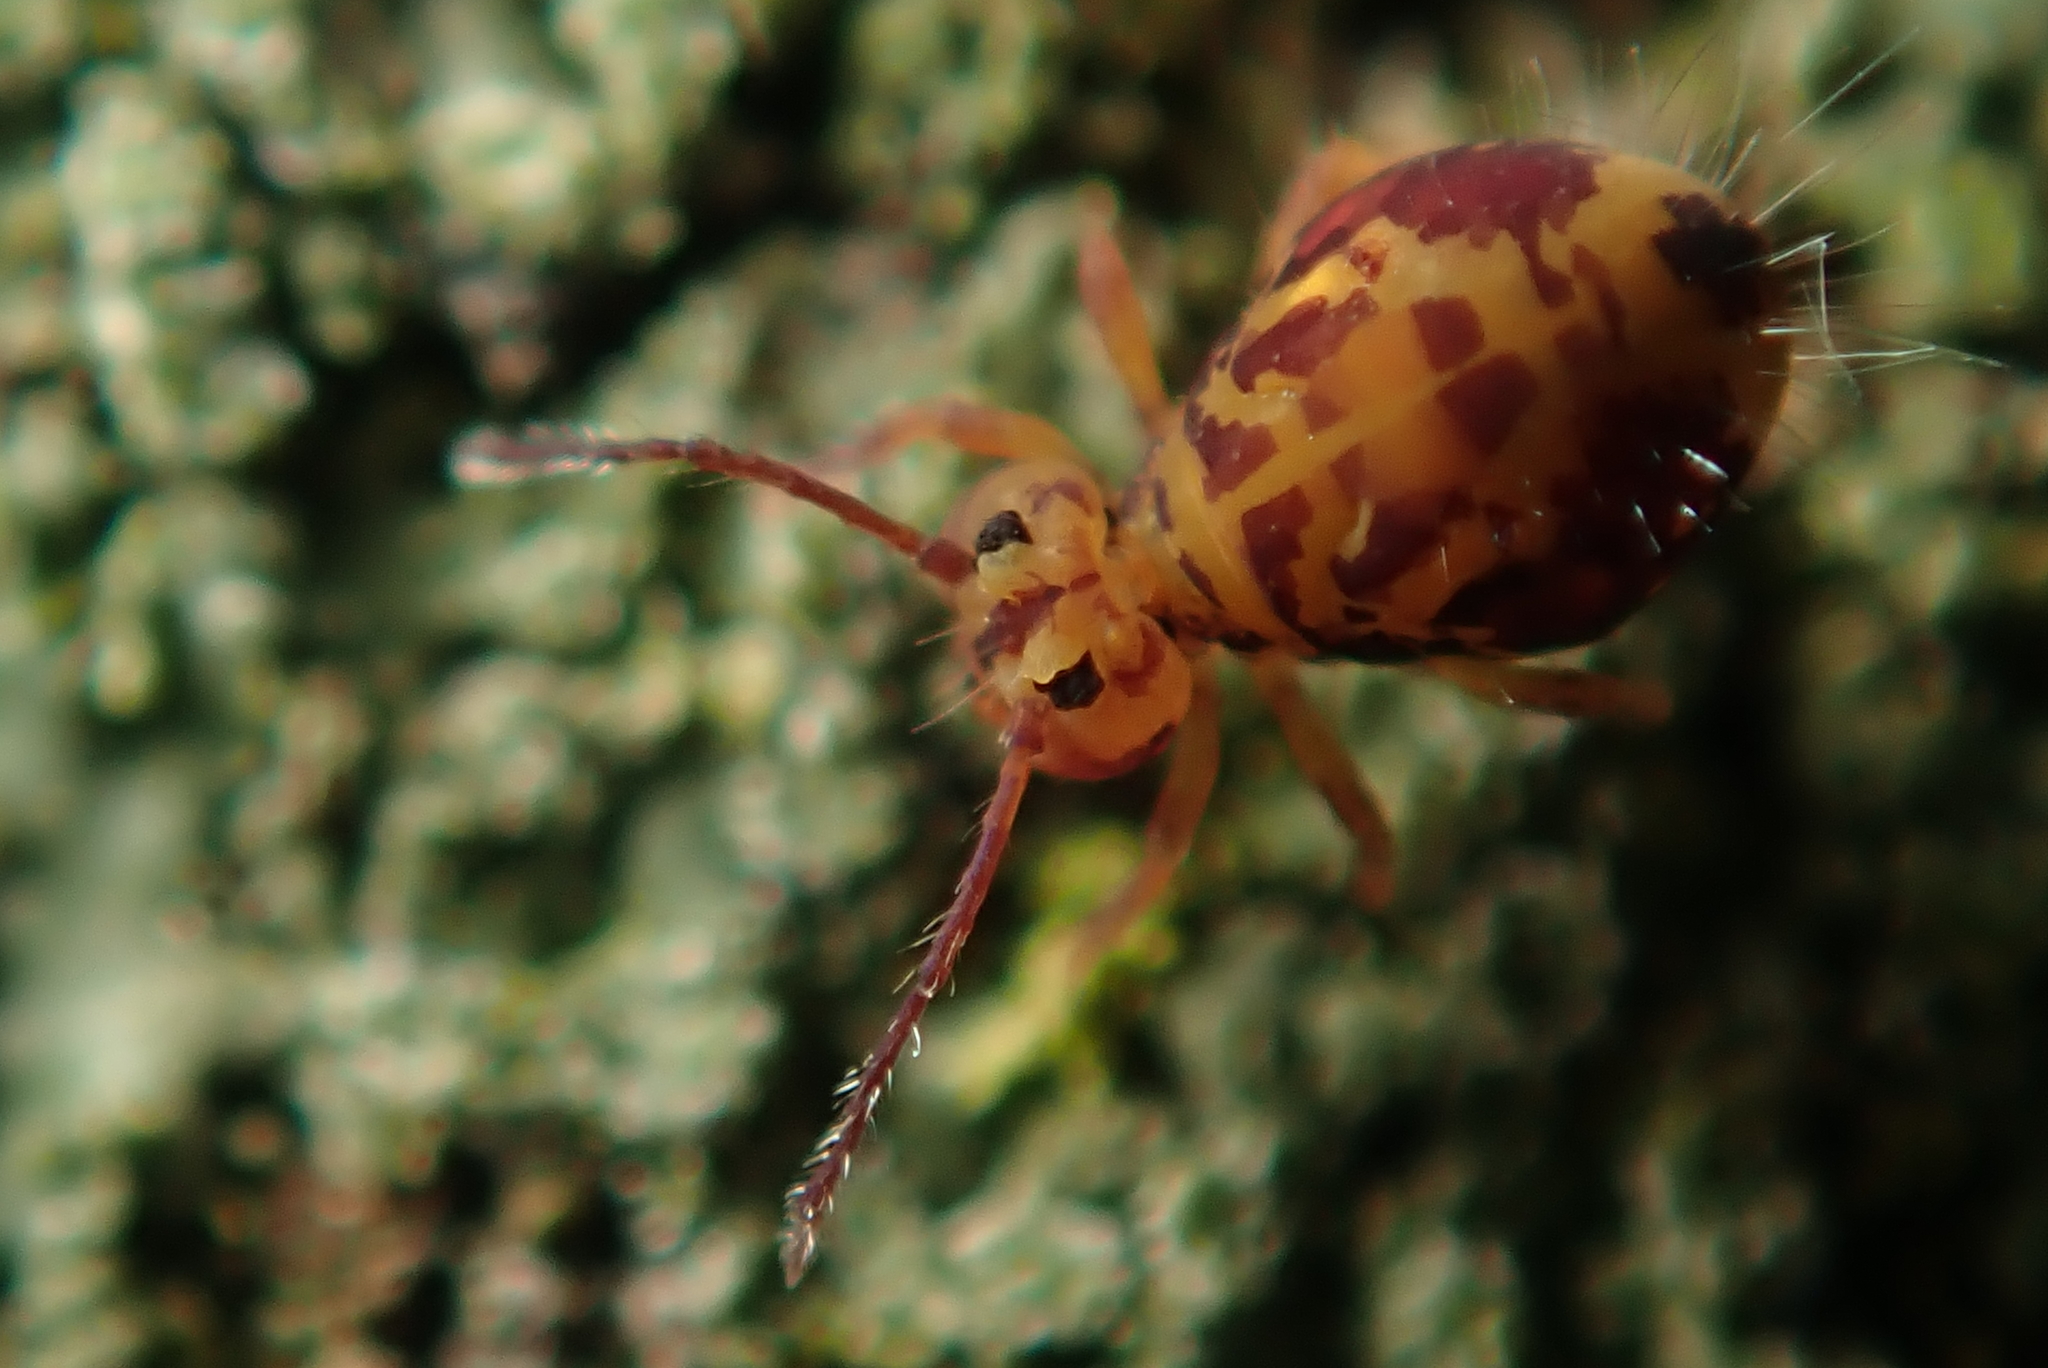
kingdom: Animalia
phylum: Arthropoda
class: Collembola
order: Symphypleona
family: Dicyrtomidae
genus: Dicyrtomina
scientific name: Dicyrtomina ornata
